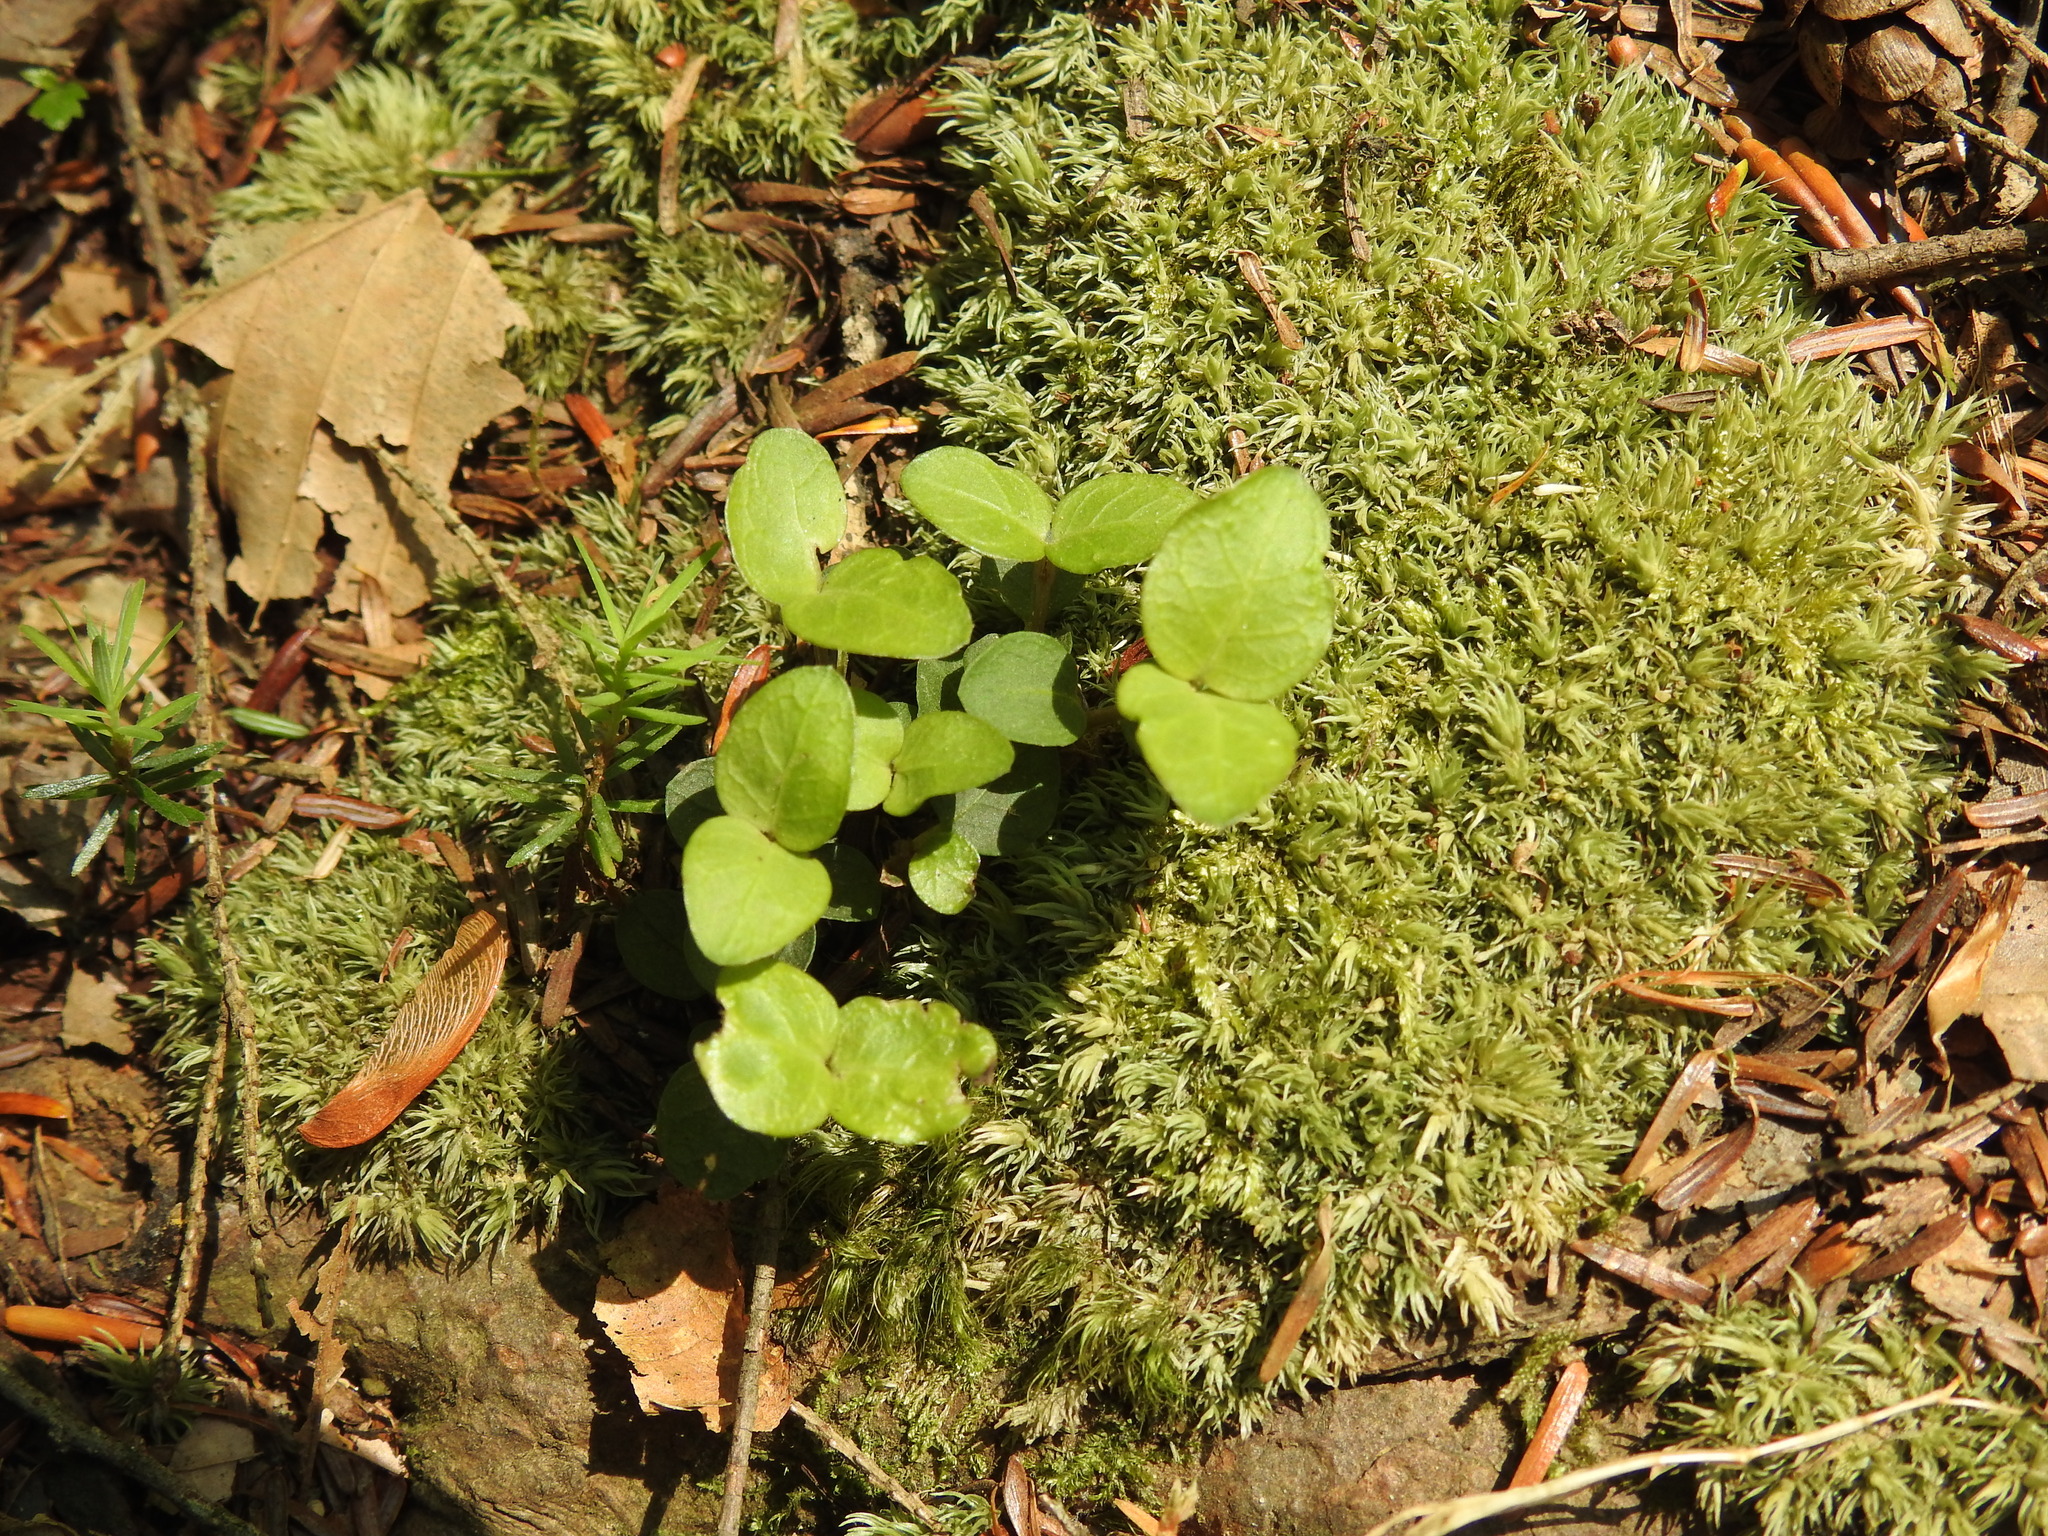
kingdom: Plantae
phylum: Tracheophyta
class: Magnoliopsida
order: Gentianales
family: Rubiaceae
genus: Mitchella
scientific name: Mitchella repens
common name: Partridge-berry
